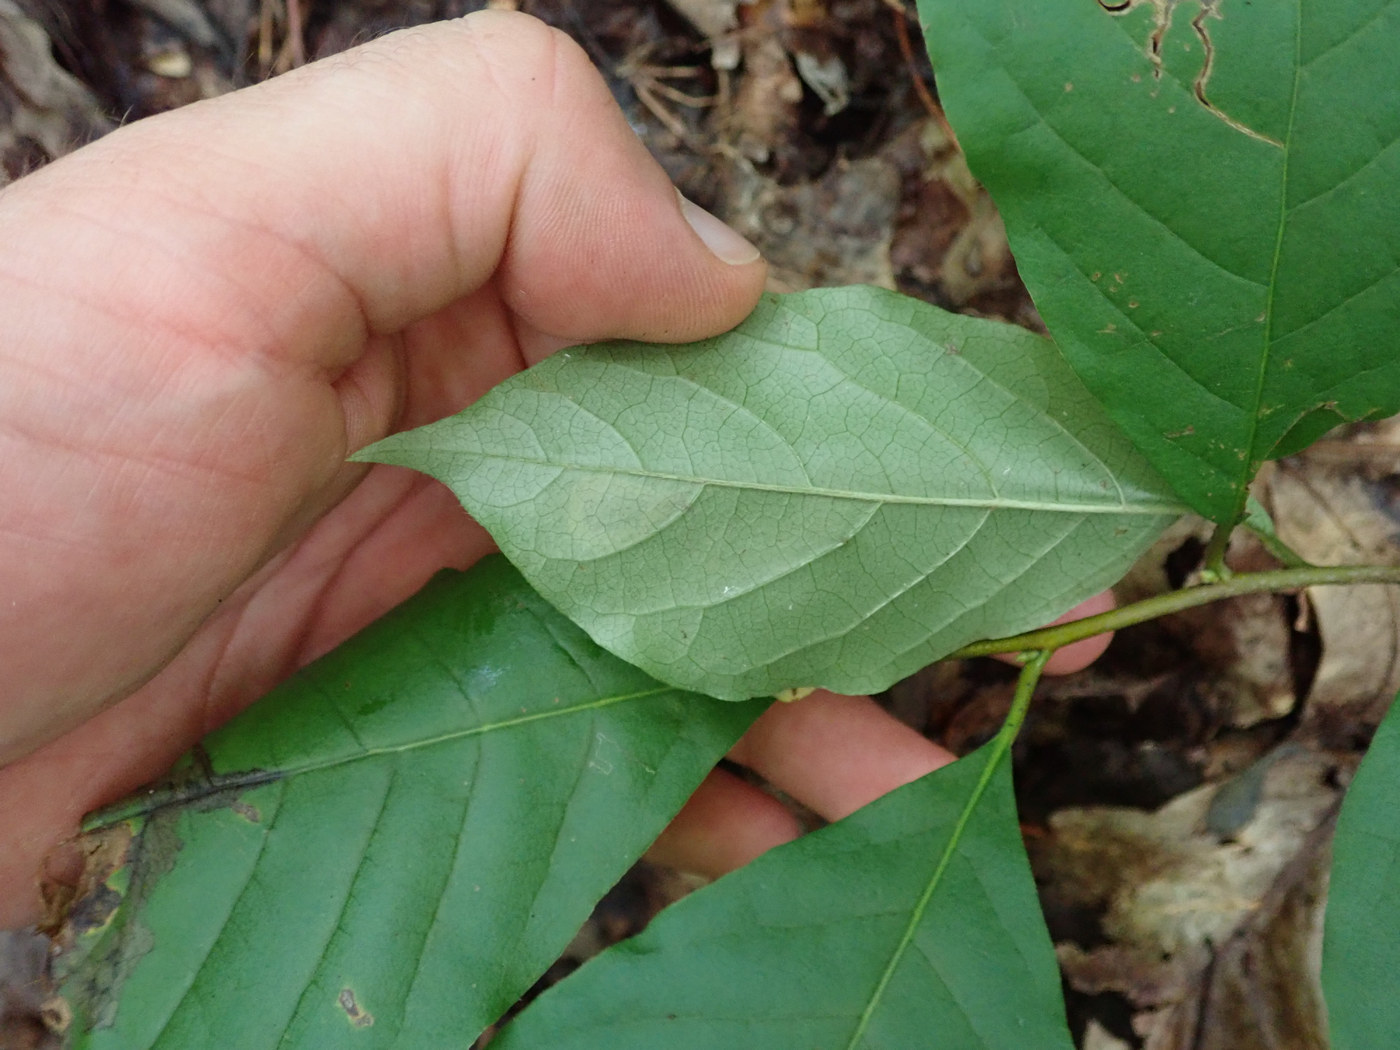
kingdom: Animalia
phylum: Arthropoda
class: Insecta
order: Lepidoptera
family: Nepticulidae
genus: Ectoedemia
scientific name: Ectoedemia nyssaefoliella
